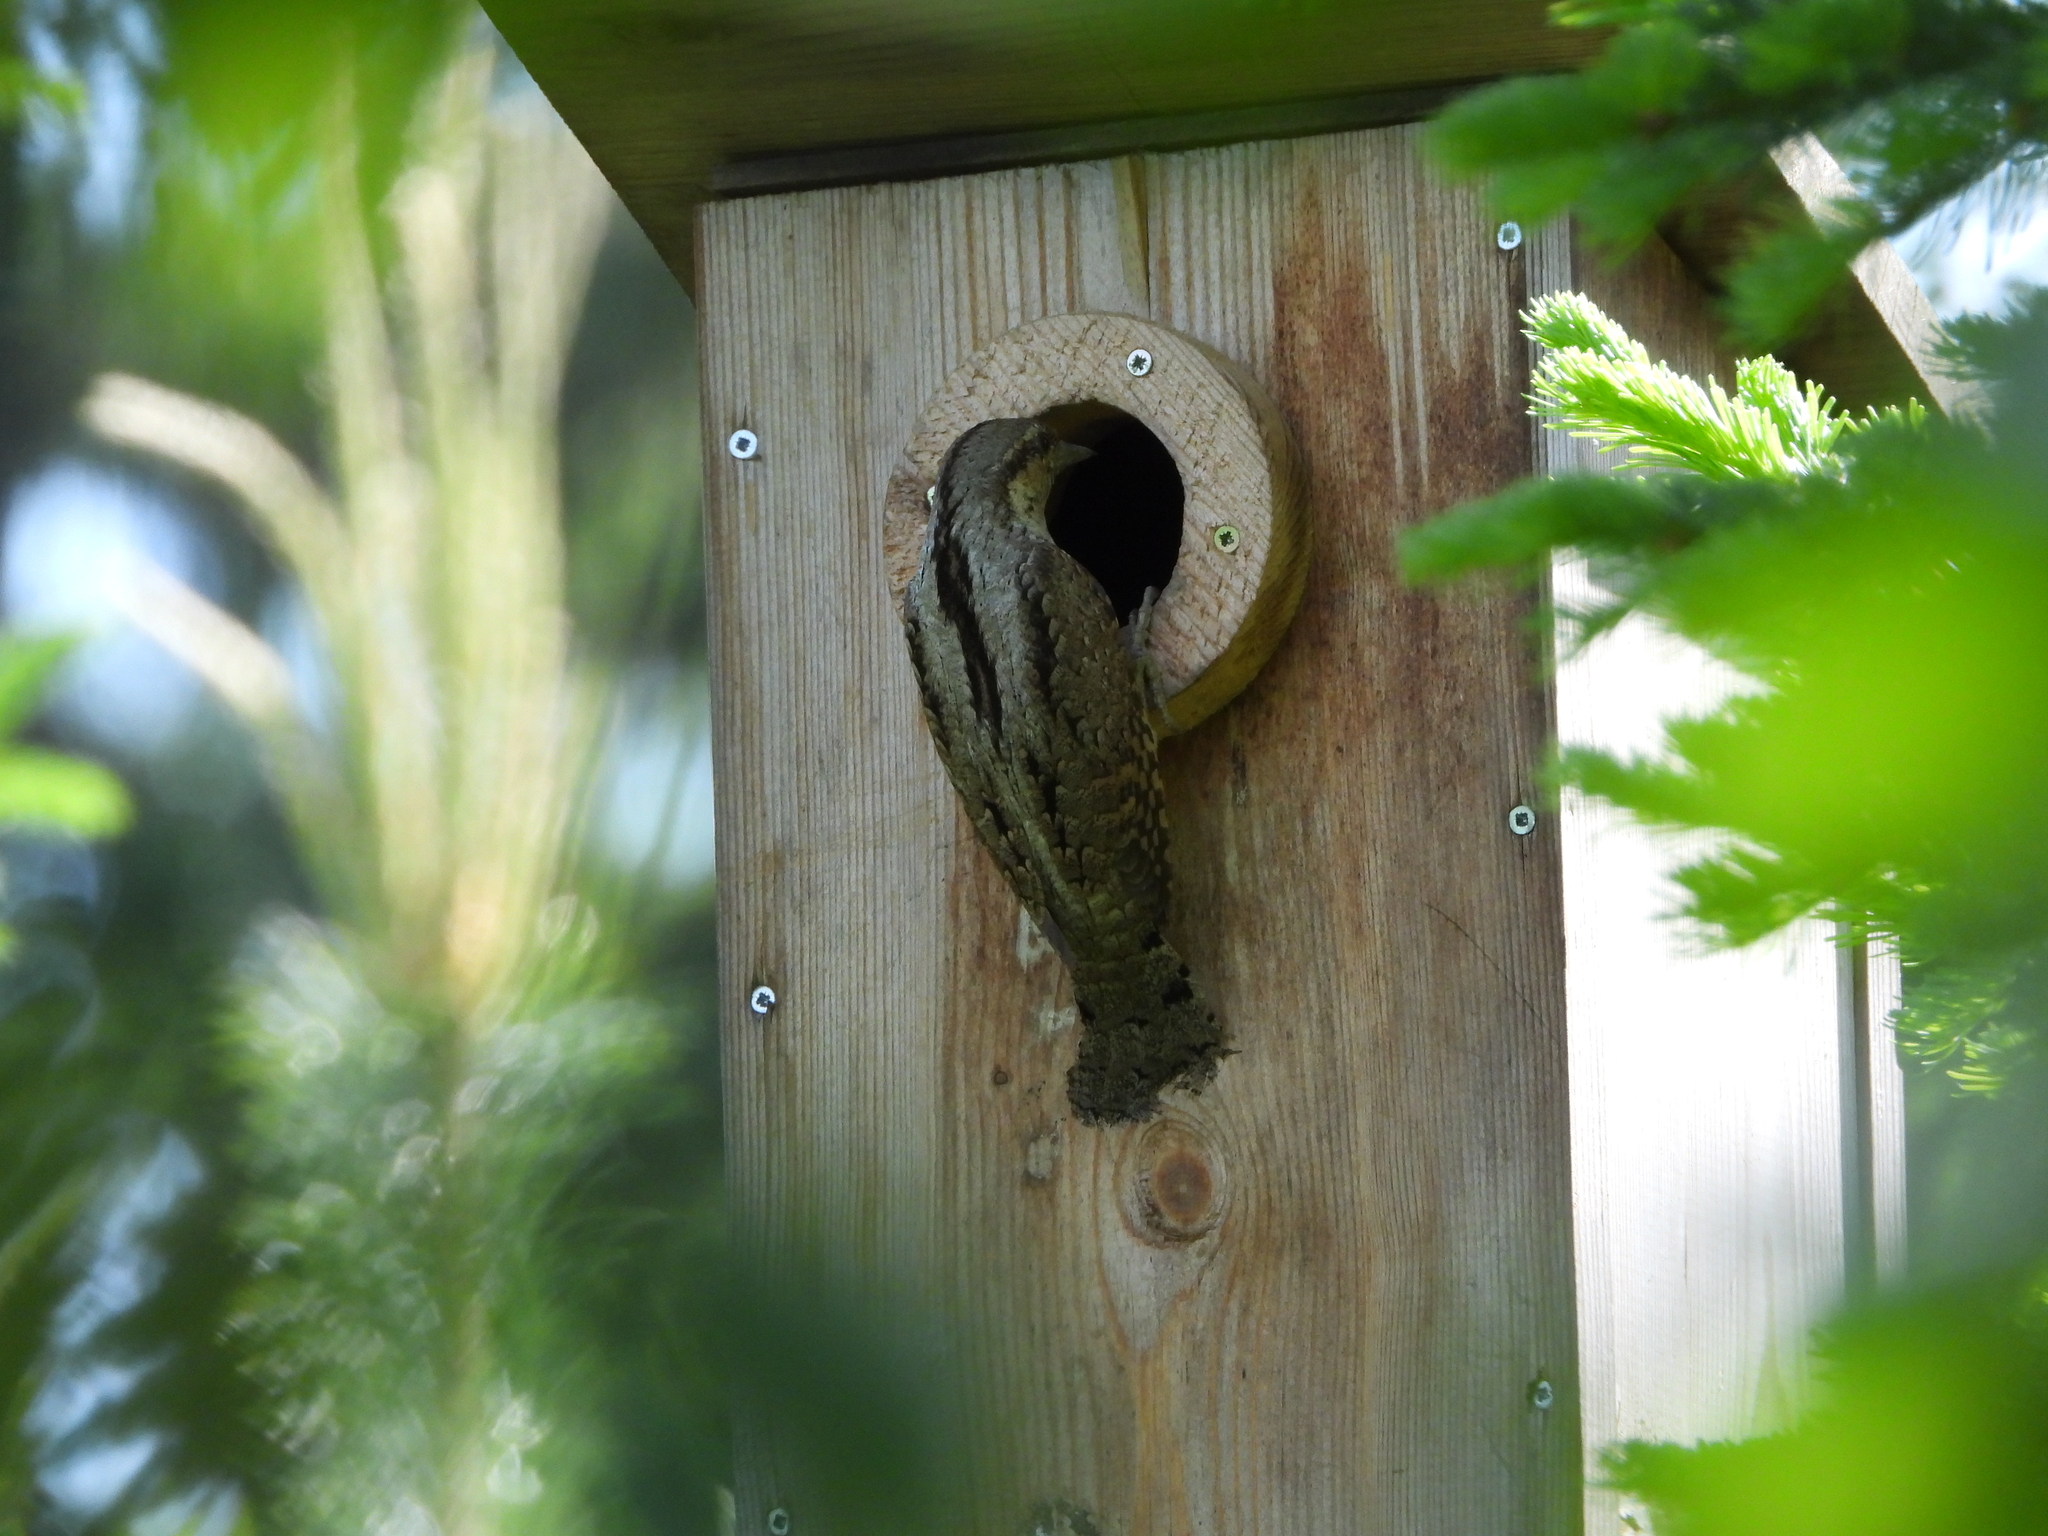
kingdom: Animalia
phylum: Chordata
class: Aves
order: Piciformes
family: Picidae
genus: Jynx
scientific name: Jynx torquilla
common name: Eurasian wryneck
